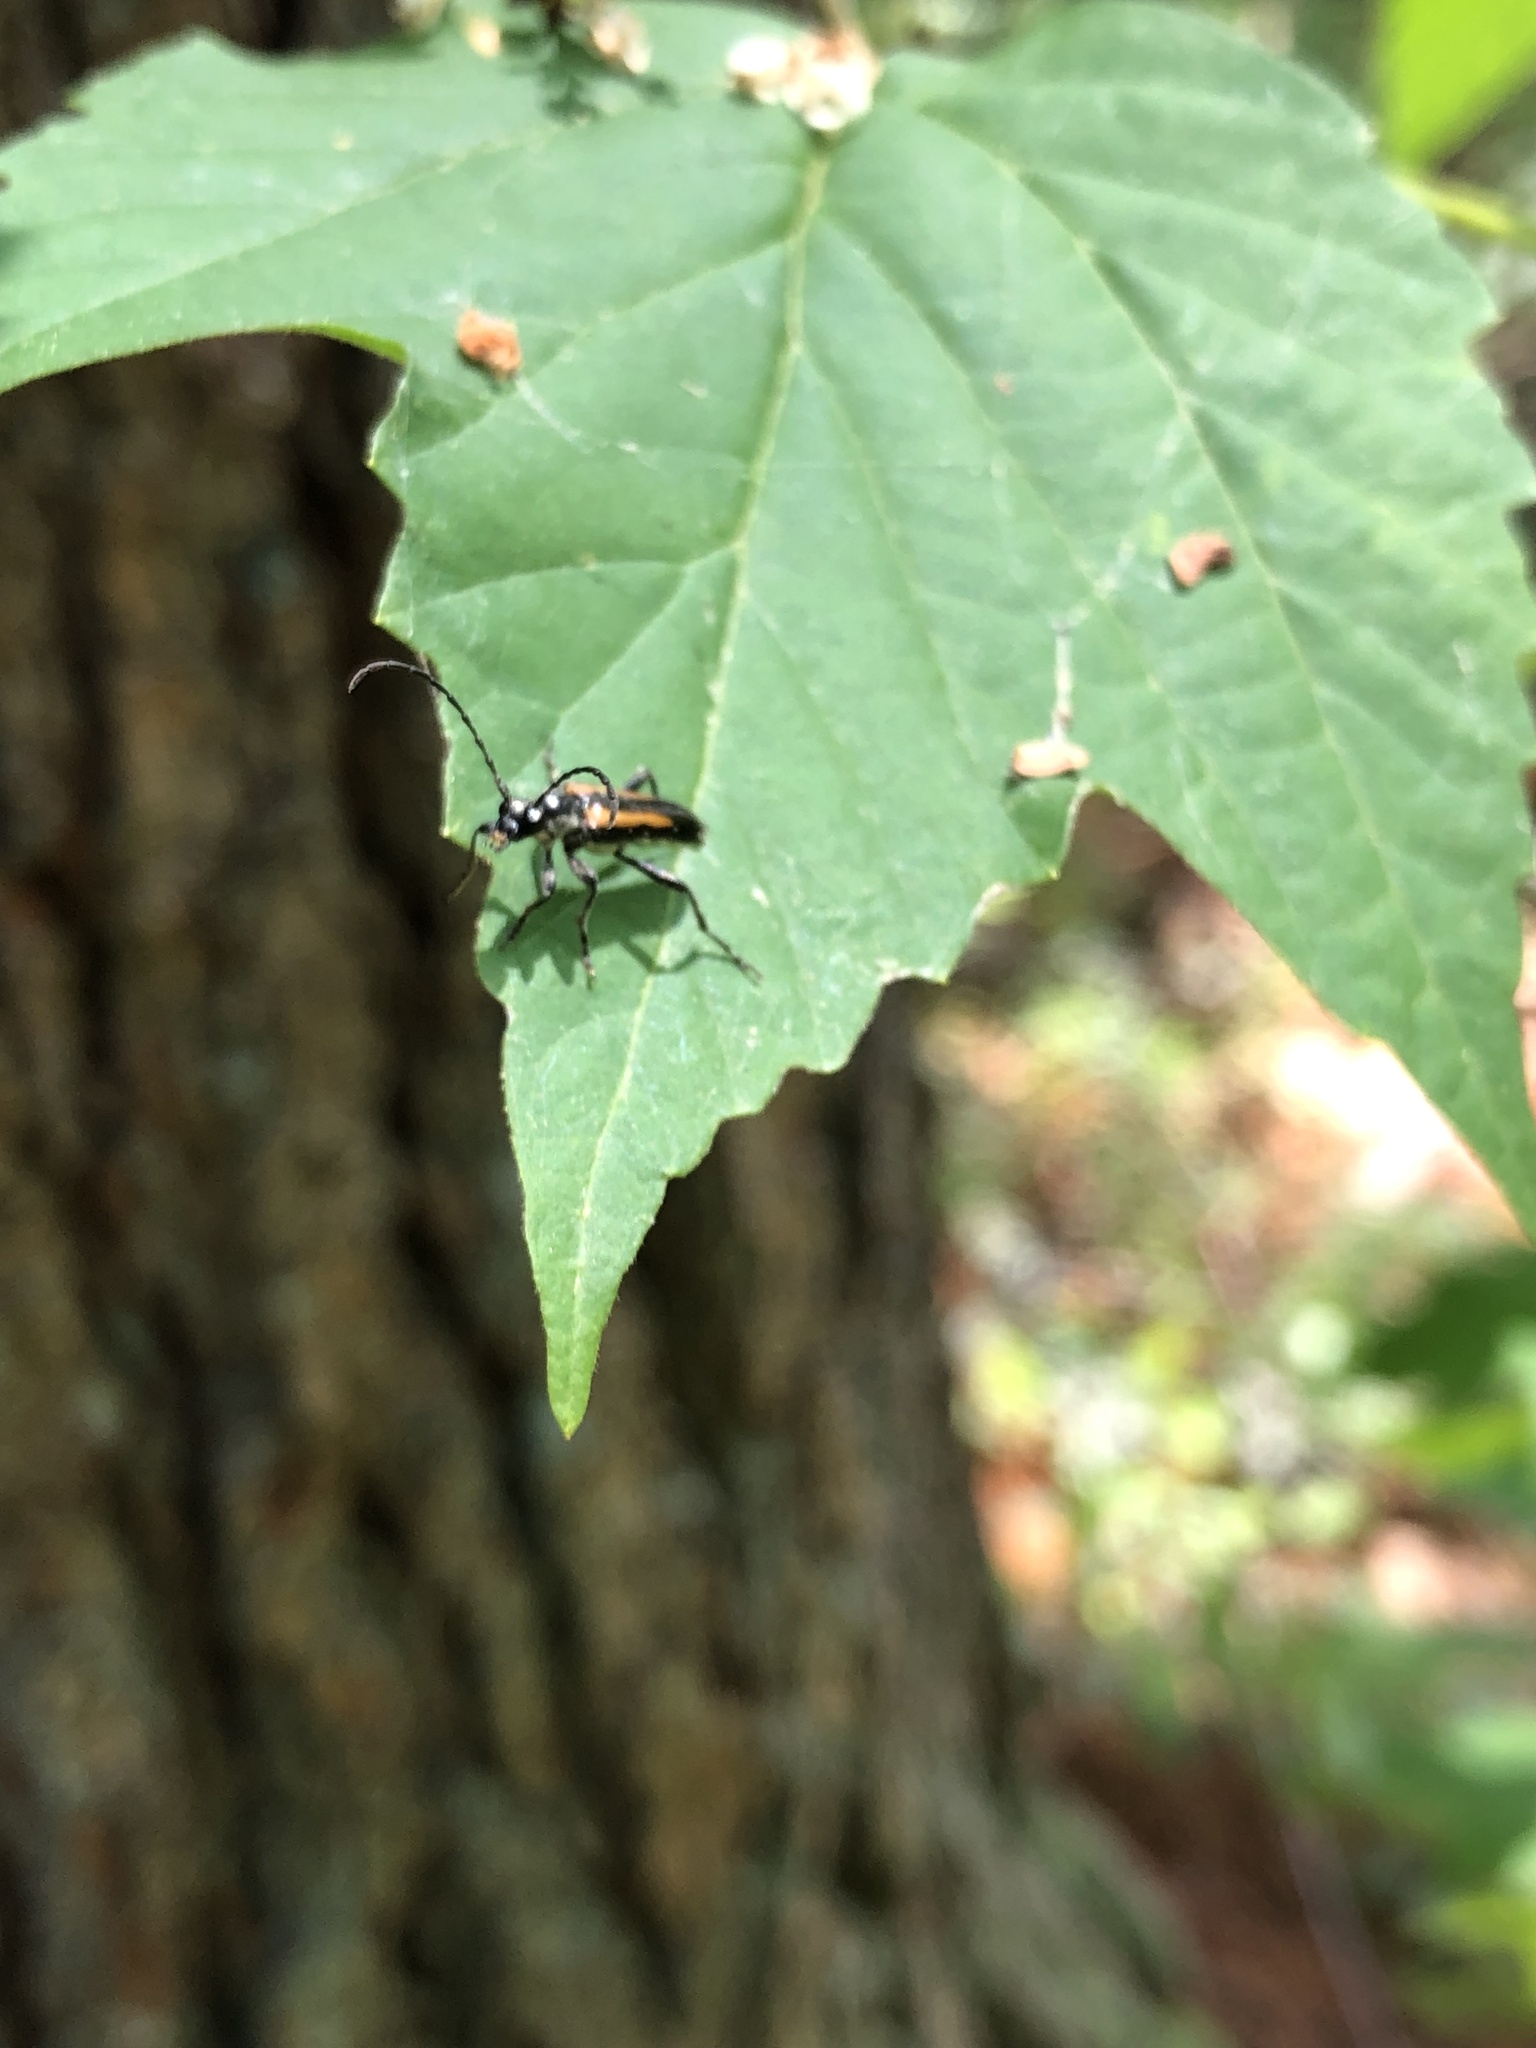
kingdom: Animalia
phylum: Arthropoda
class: Insecta
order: Coleoptera
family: Cerambycidae
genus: Strangalepta
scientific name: Strangalepta abbreviata
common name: Strangalepta flower longhorn beetle
